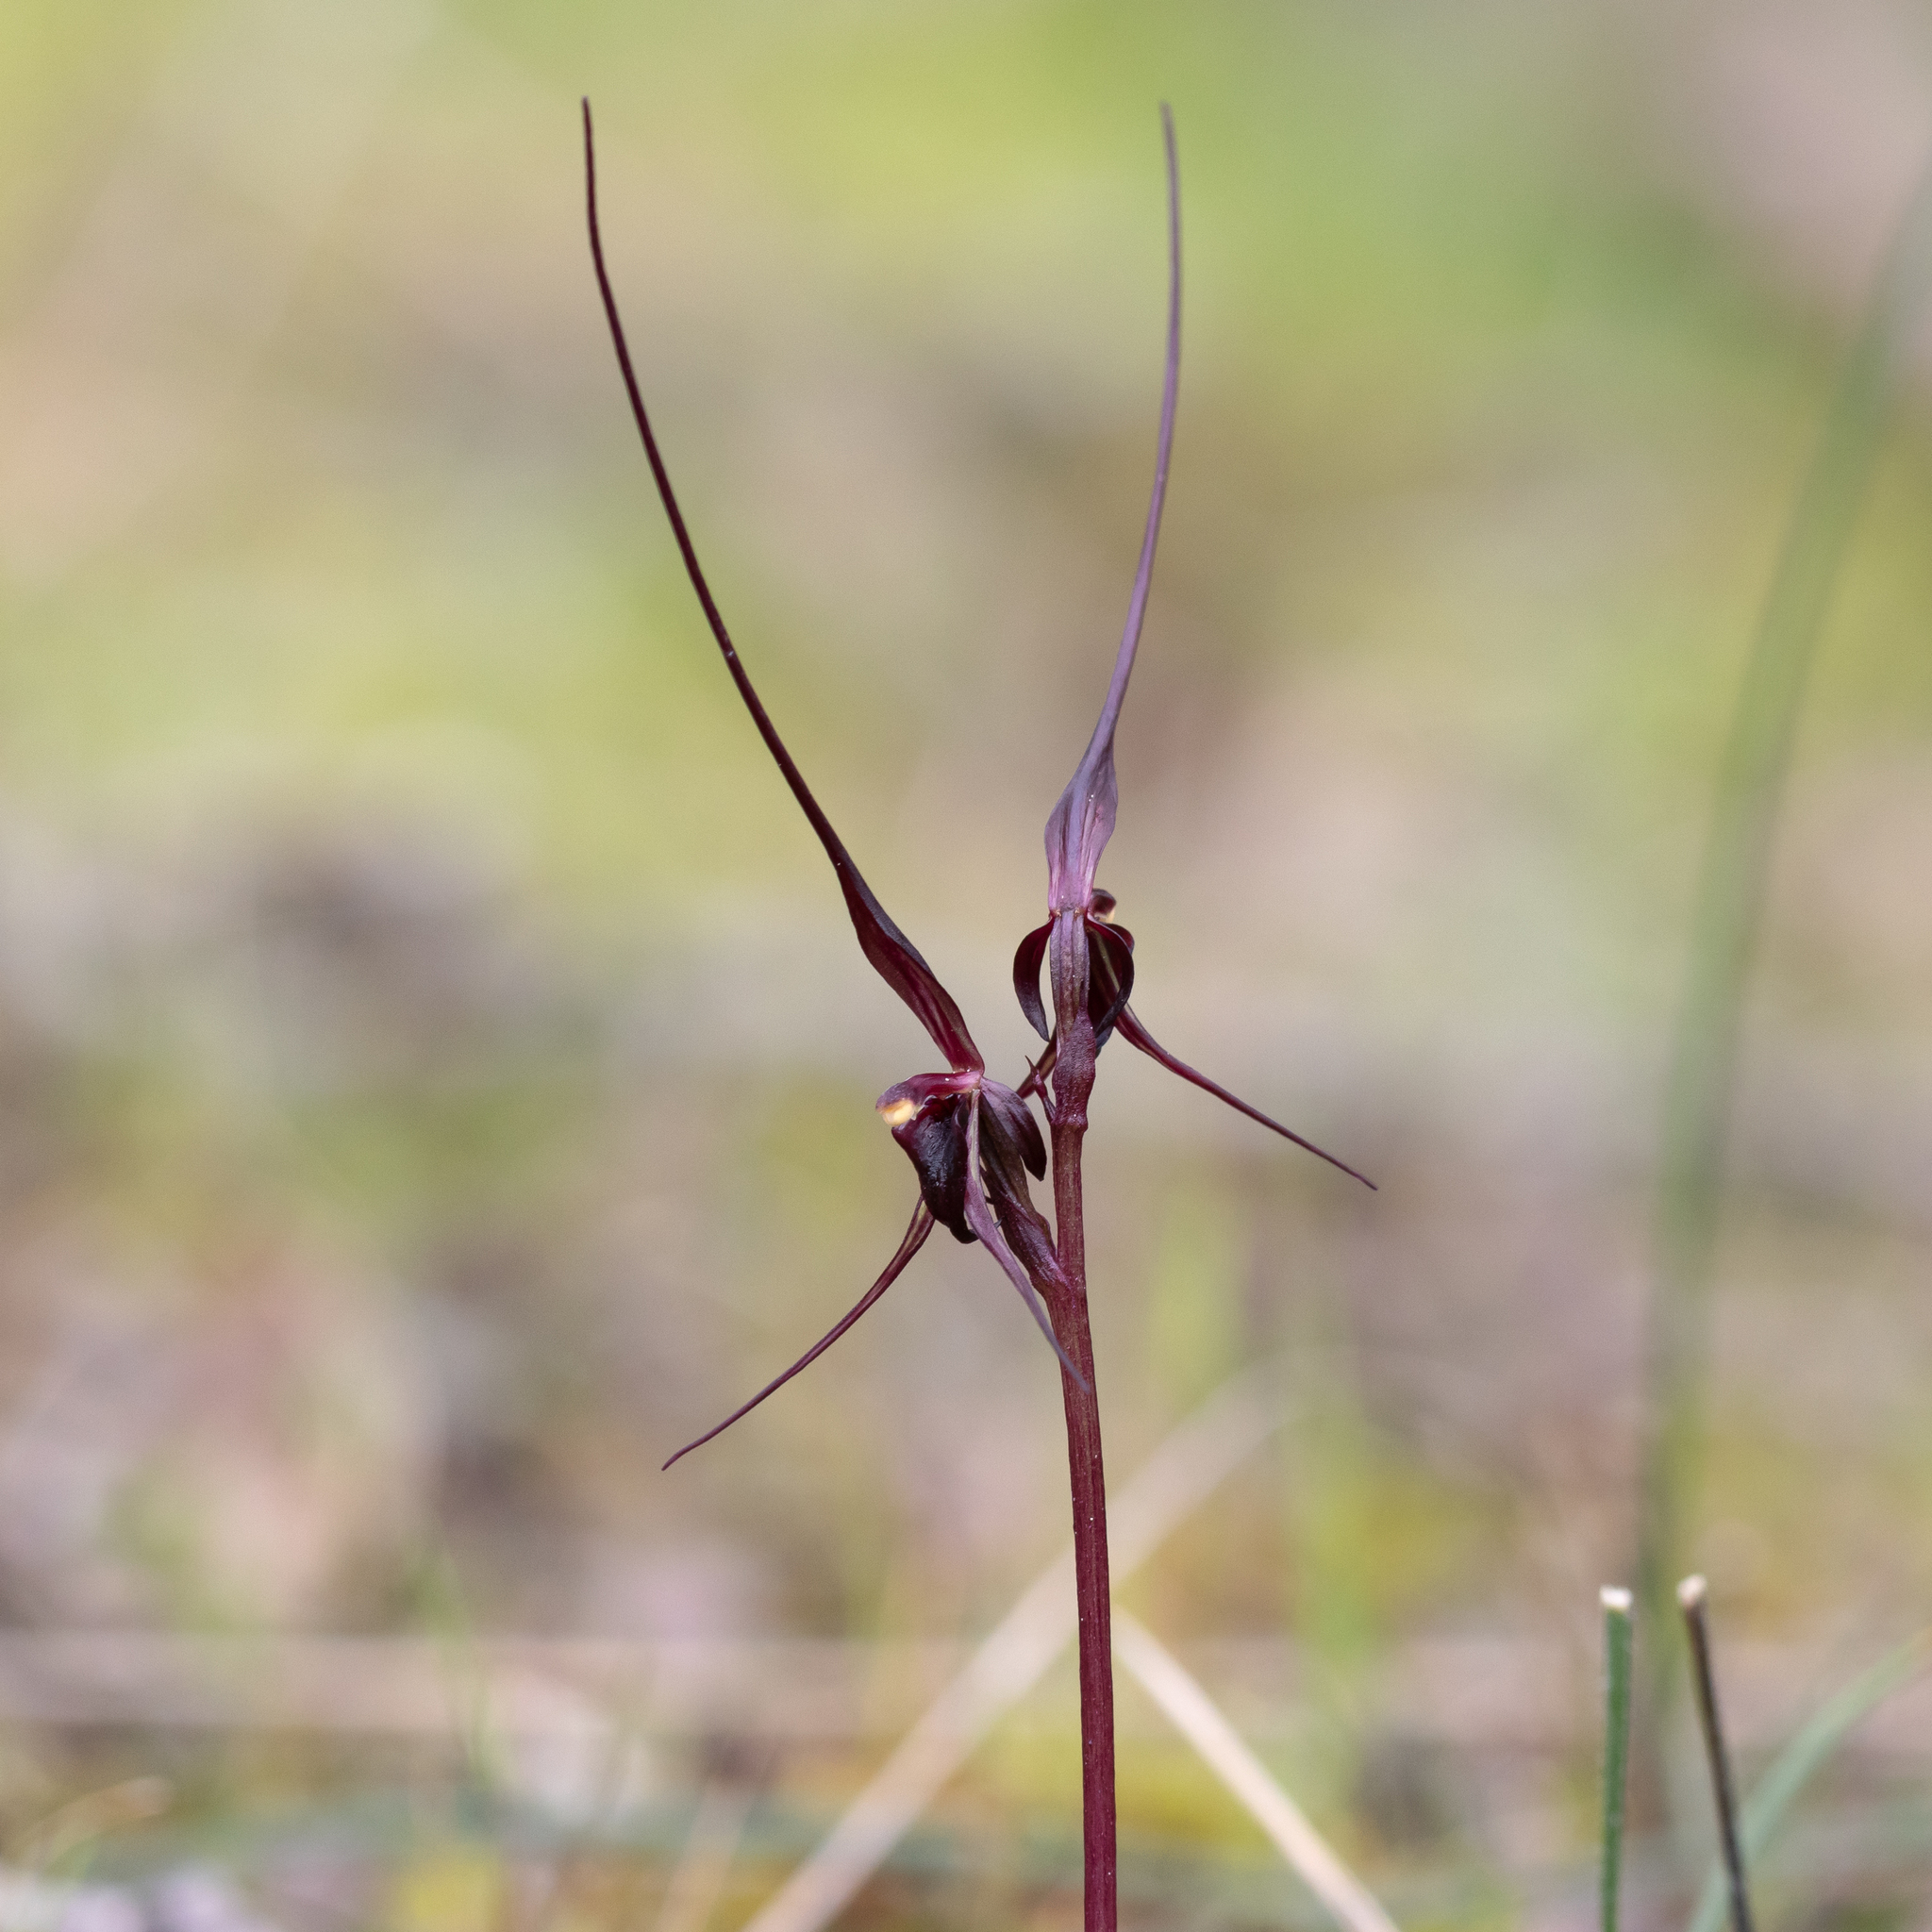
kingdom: Plantae
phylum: Tracheophyta
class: Liliopsida
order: Asparagales
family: Orchidaceae
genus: Acianthus
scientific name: Acianthus caudatus
